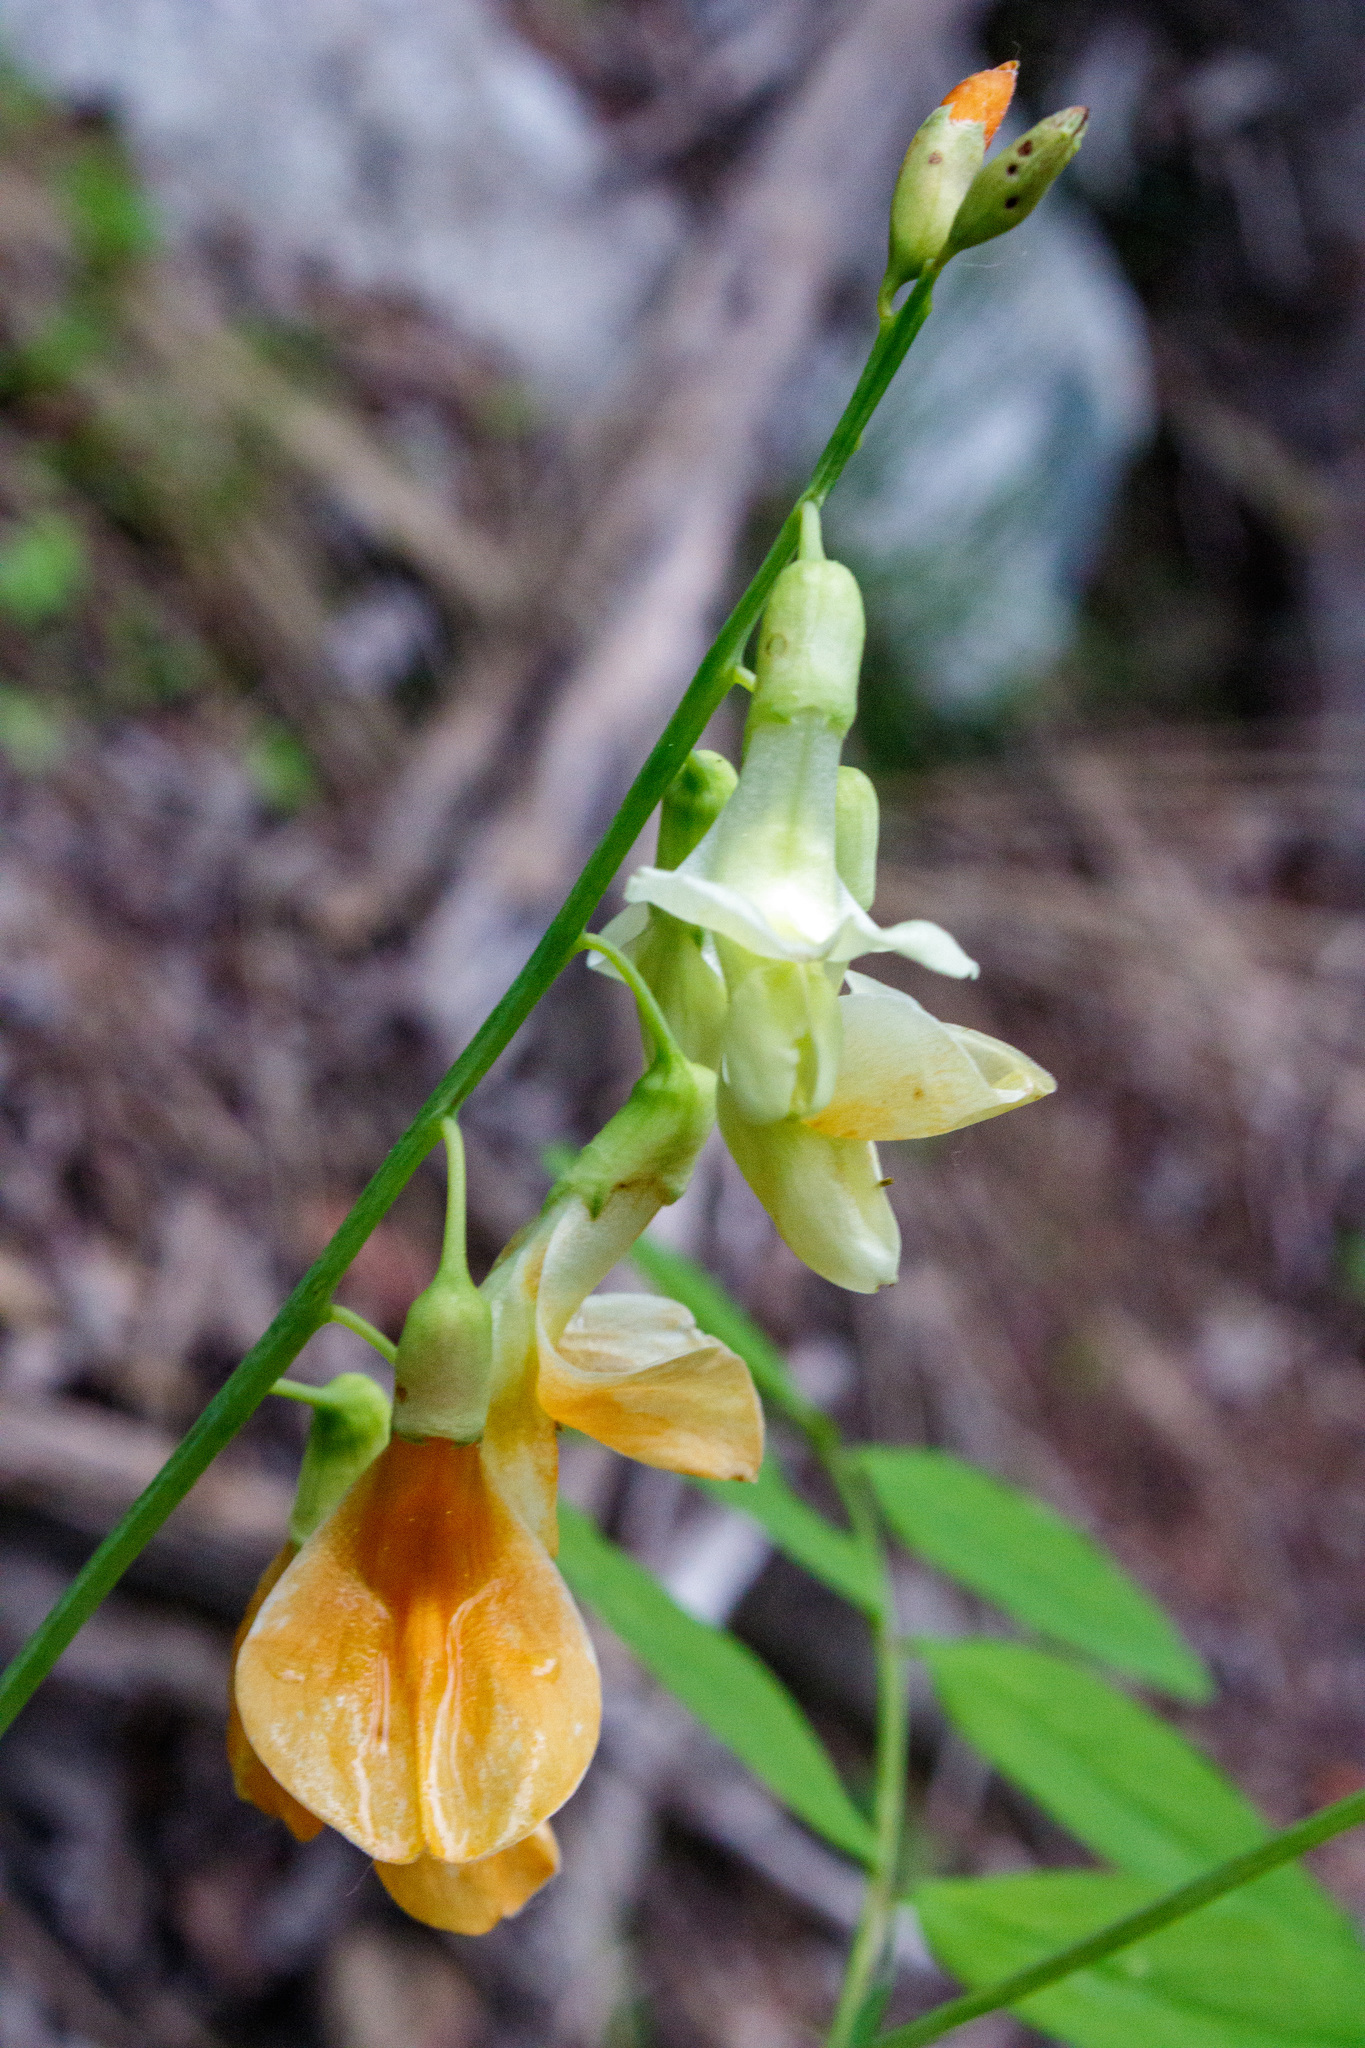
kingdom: Plantae
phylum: Tracheophyta
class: Magnoliopsida
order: Fabales
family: Fabaceae
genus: Lathyrus
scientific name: Lathyrus gmelinii
